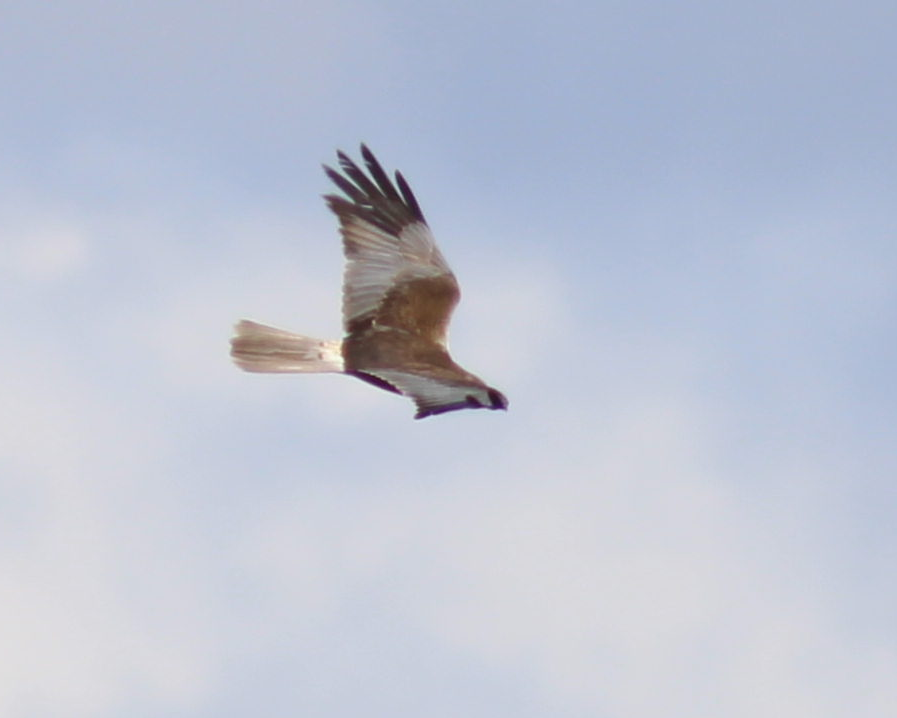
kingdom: Animalia
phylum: Chordata
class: Aves
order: Accipitriformes
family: Accipitridae
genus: Circus
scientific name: Circus aeruginosus
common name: Western marsh harrier
